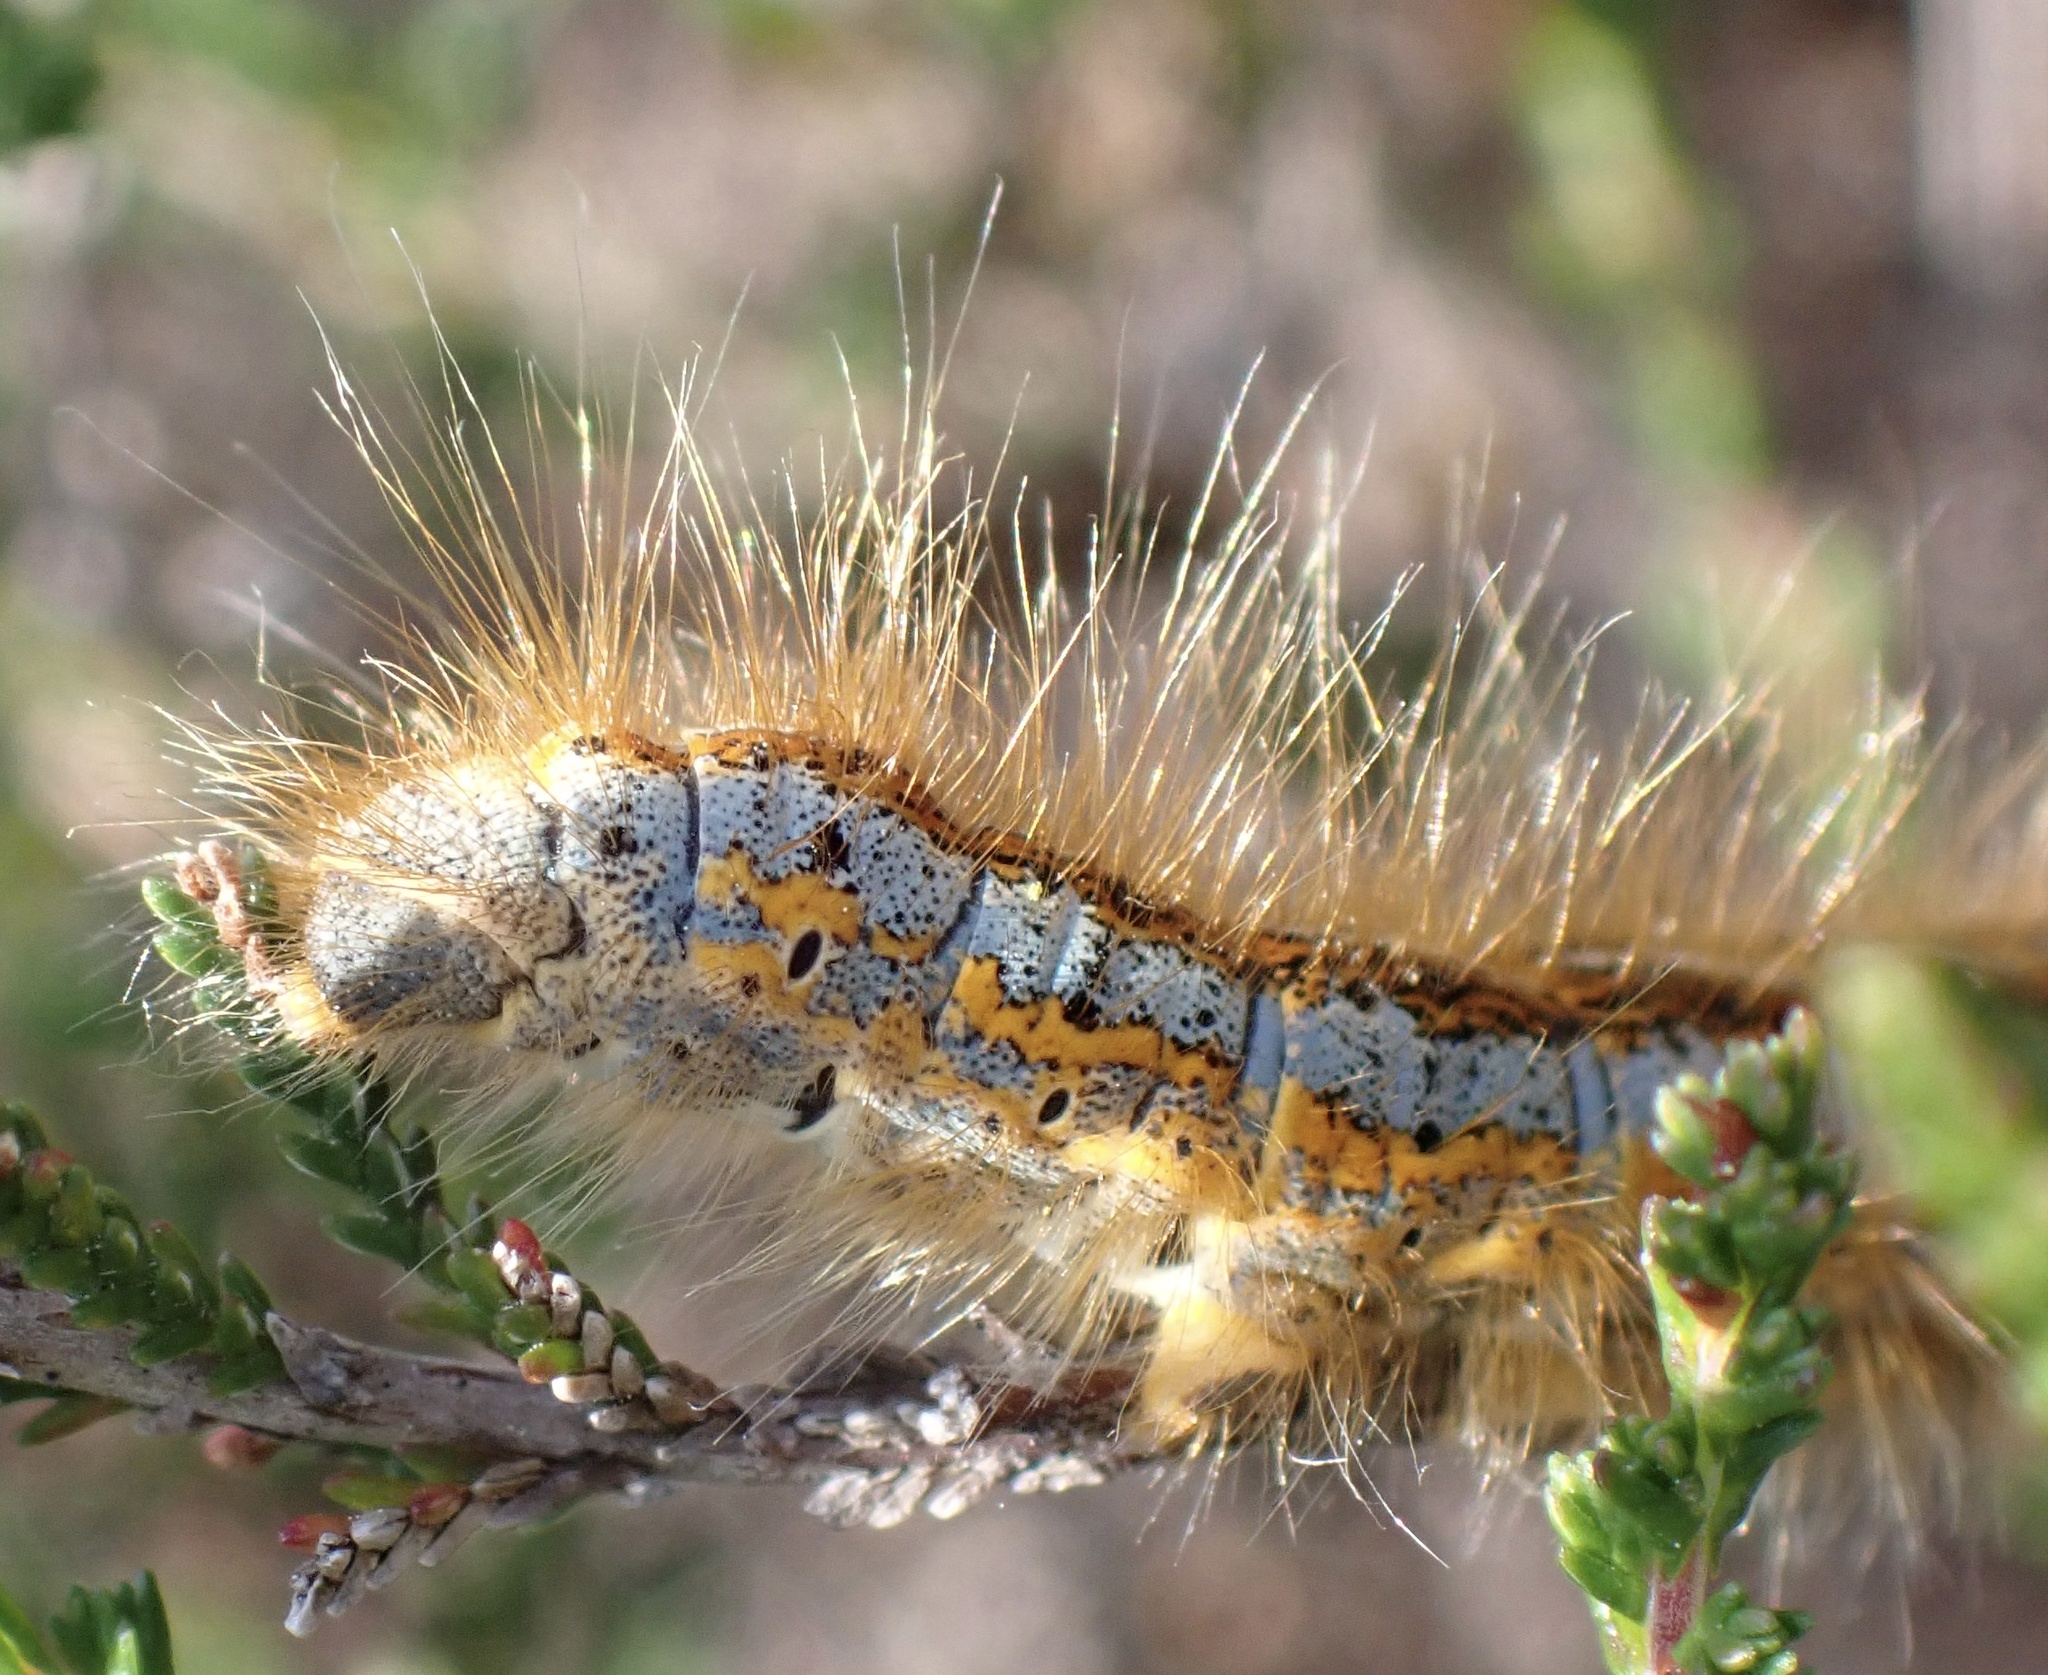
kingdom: Animalia
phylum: Arthropoda
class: Insecta
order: Lepidoptera
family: Lasiocampidae
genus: Malacosoma
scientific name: Malacosoma castrense
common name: Ground lackey
